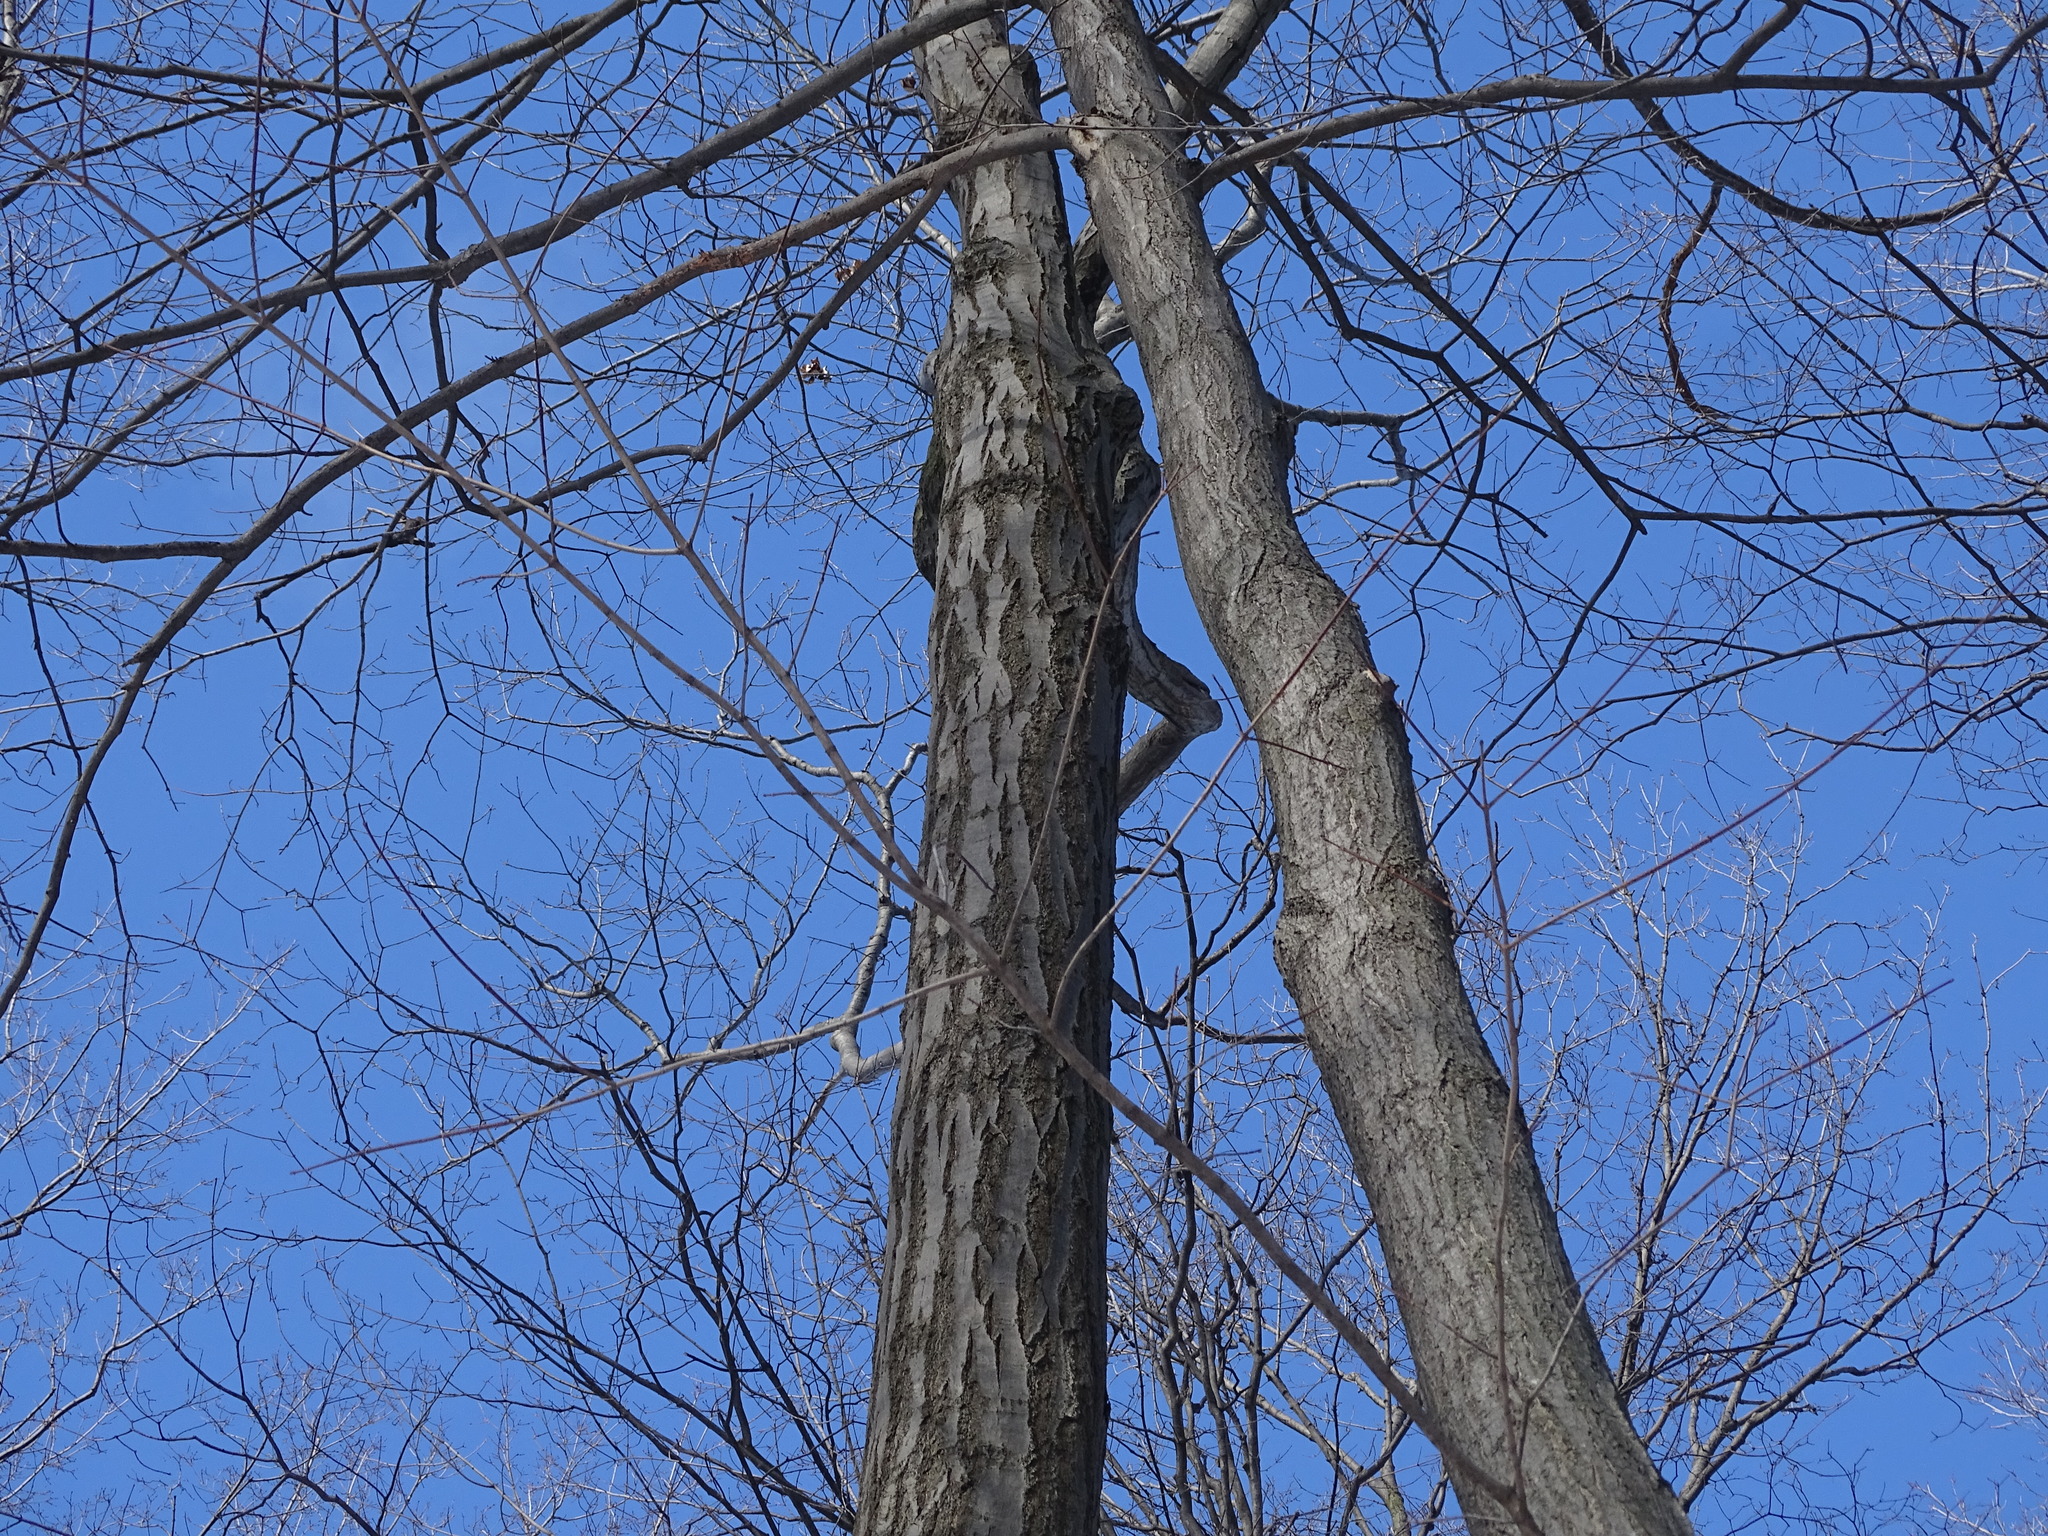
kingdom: Plantae
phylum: Tracheophyta
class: Magnoliopsida
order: Fagales
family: Fagaceae
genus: Quercus
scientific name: Quercus rubra
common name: Red oak
